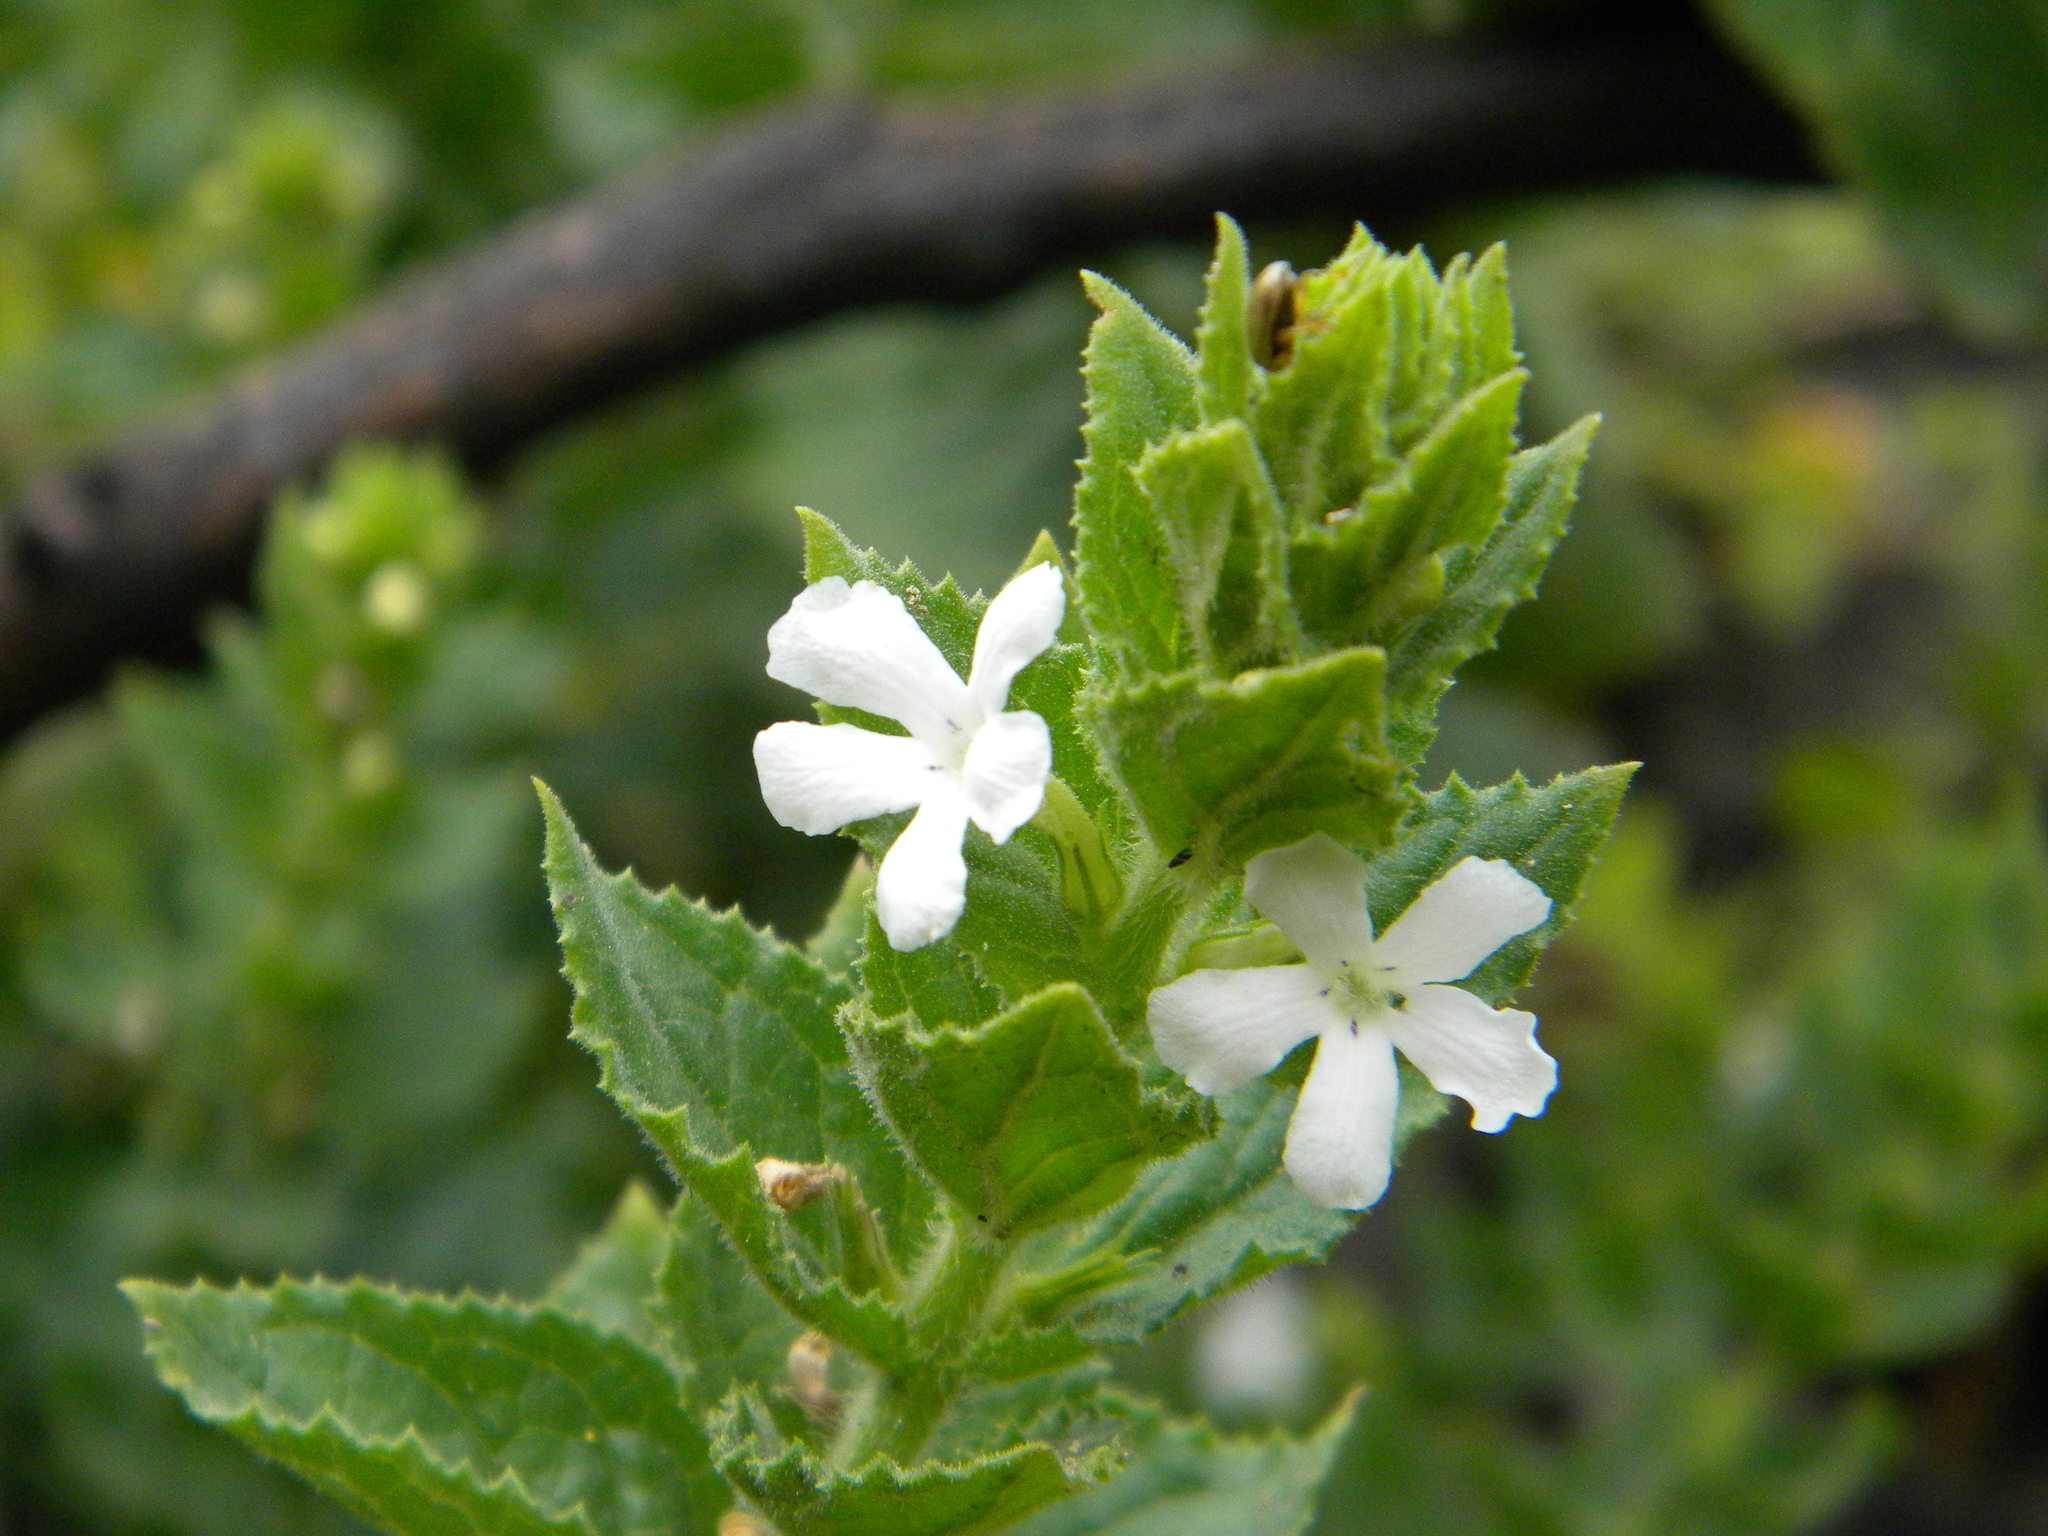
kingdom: Plantae
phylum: Tracheophyta
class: Magnoliopsida
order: Lamiales
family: Scrophulariaceae
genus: Oftia
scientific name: Oftia africana
